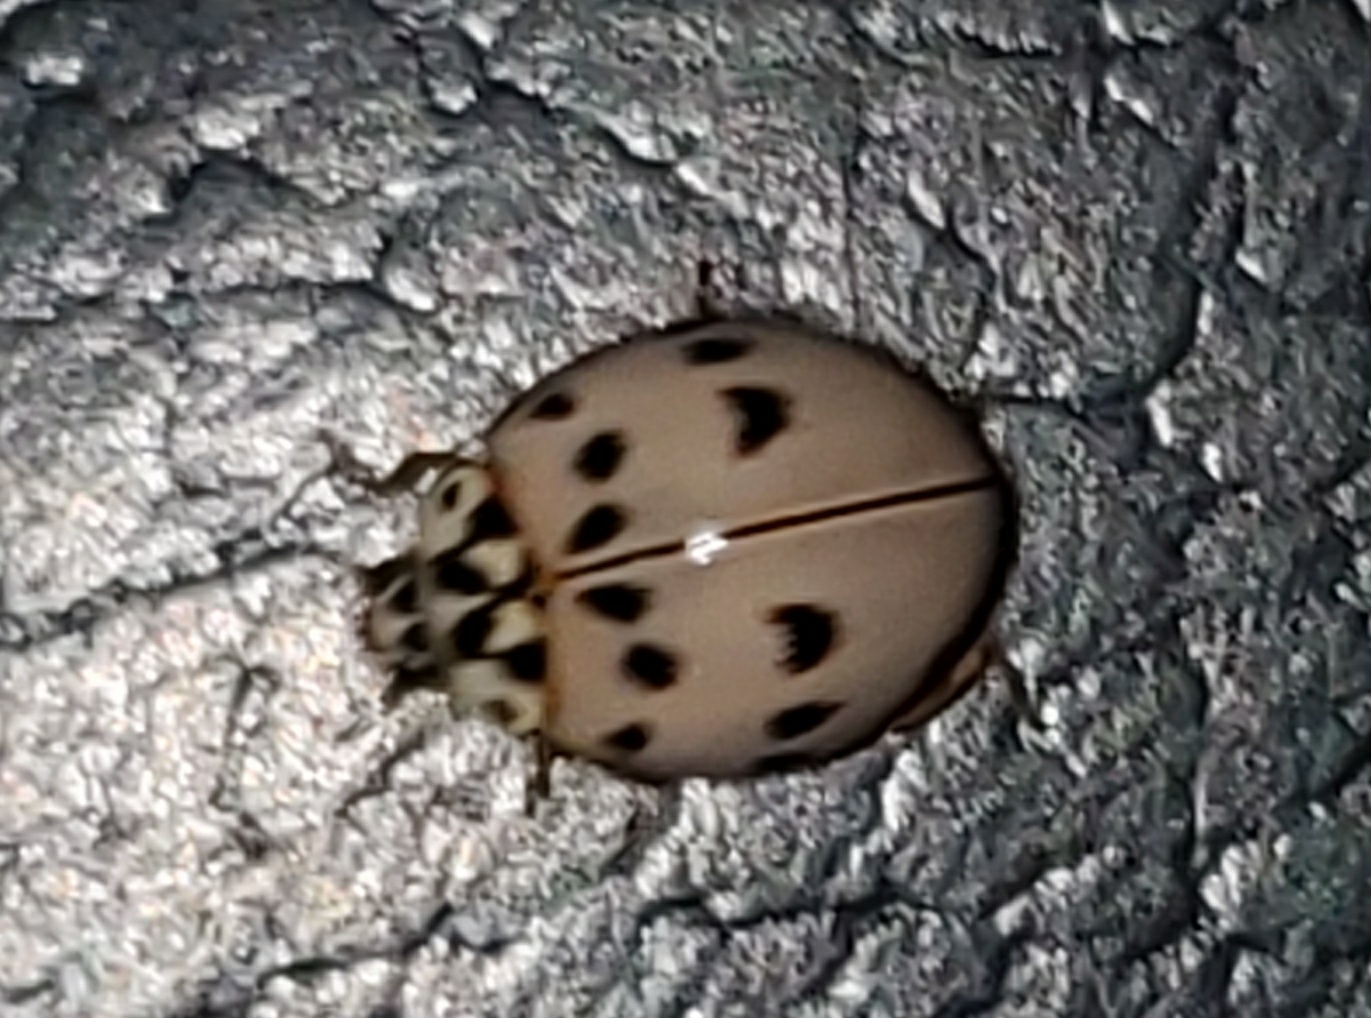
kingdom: Animalia
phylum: Arthropoda
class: Insecta
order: Coleoptera
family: Coccinellidae
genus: Olla
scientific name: Olla v-nigrum
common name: Ashy gray lady beetle
